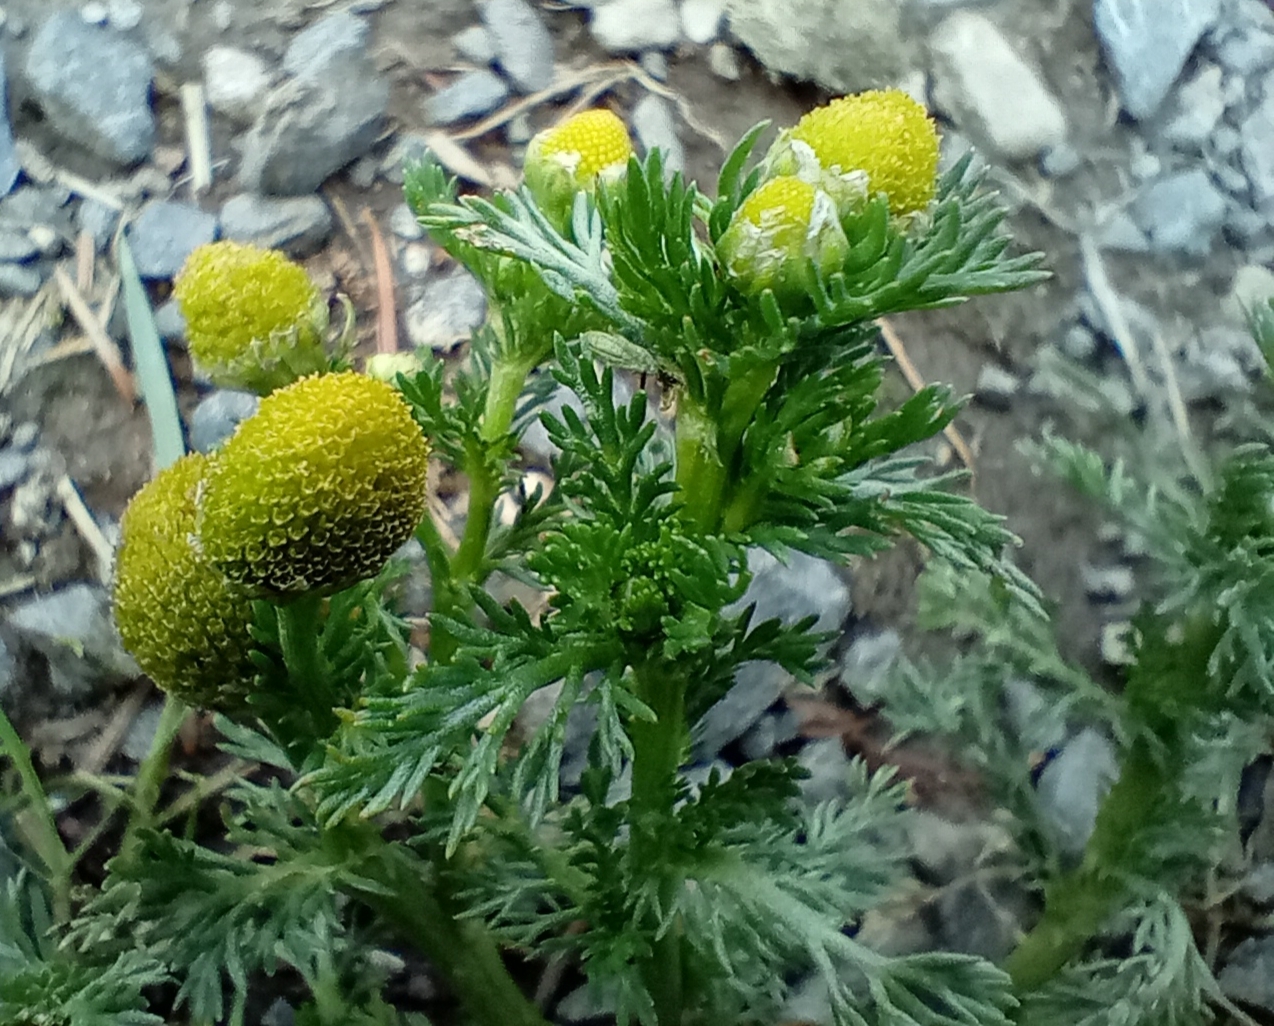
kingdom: Plantae
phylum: Tracheophyta
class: Magnoliopsida
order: Asterales
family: Asteraceae
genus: Matricaria
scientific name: Matricaria discoidea
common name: Disc mayweed
